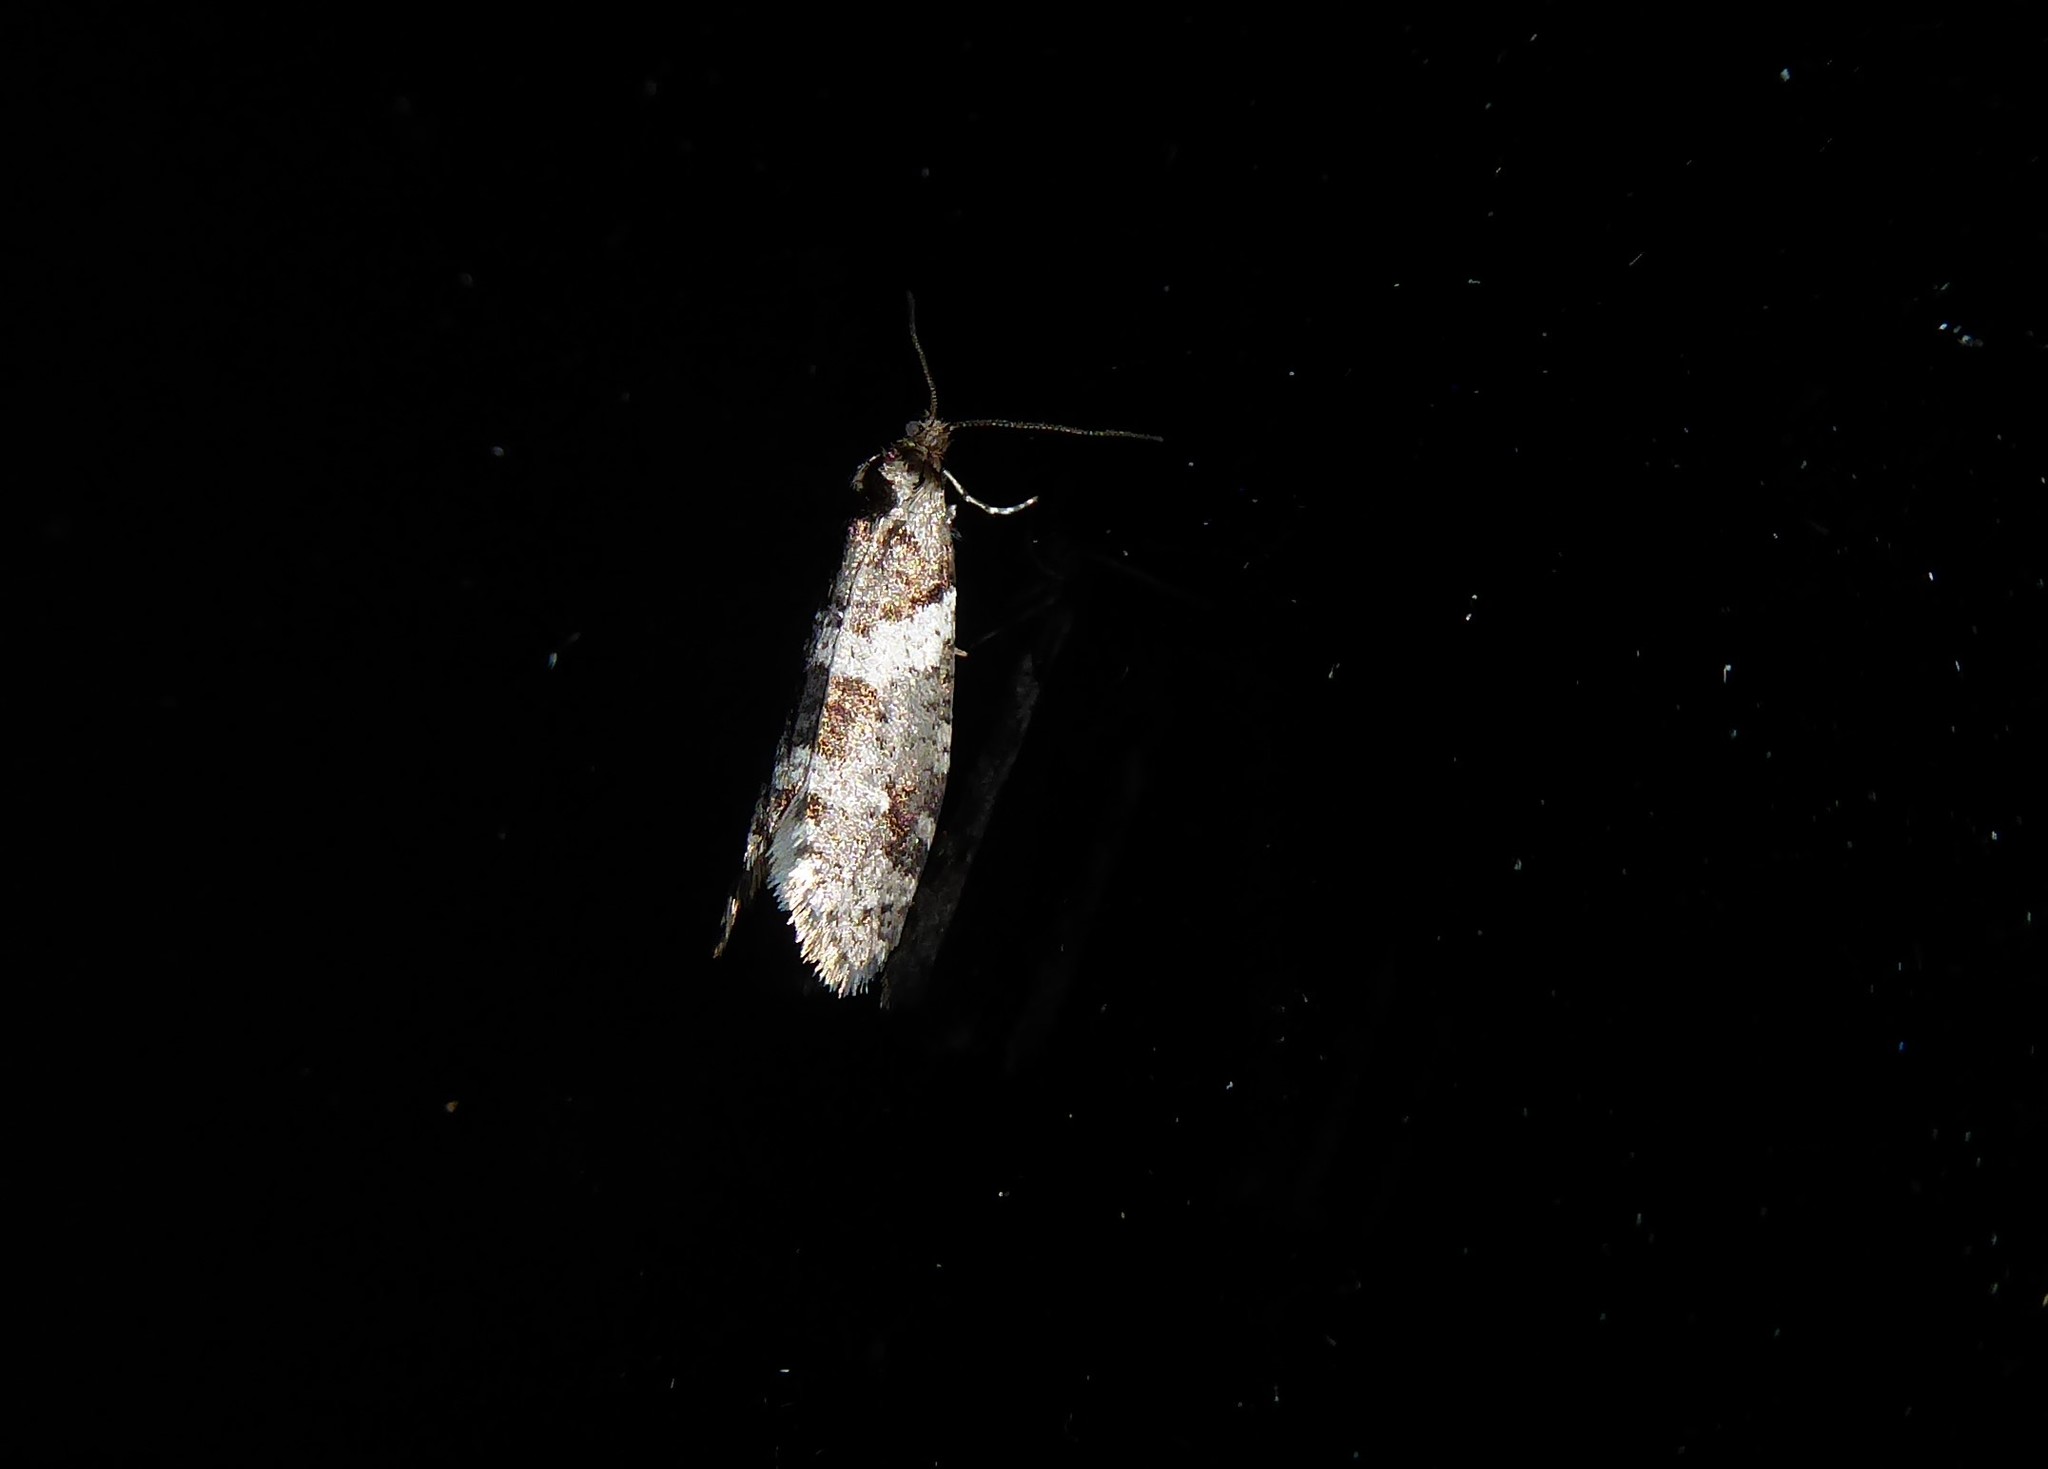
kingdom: Animalia
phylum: Arthropoda
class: Insecta
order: Lepidoptera
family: Psychidae
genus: Lepidoscia
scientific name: Lepidoscia heliochares
